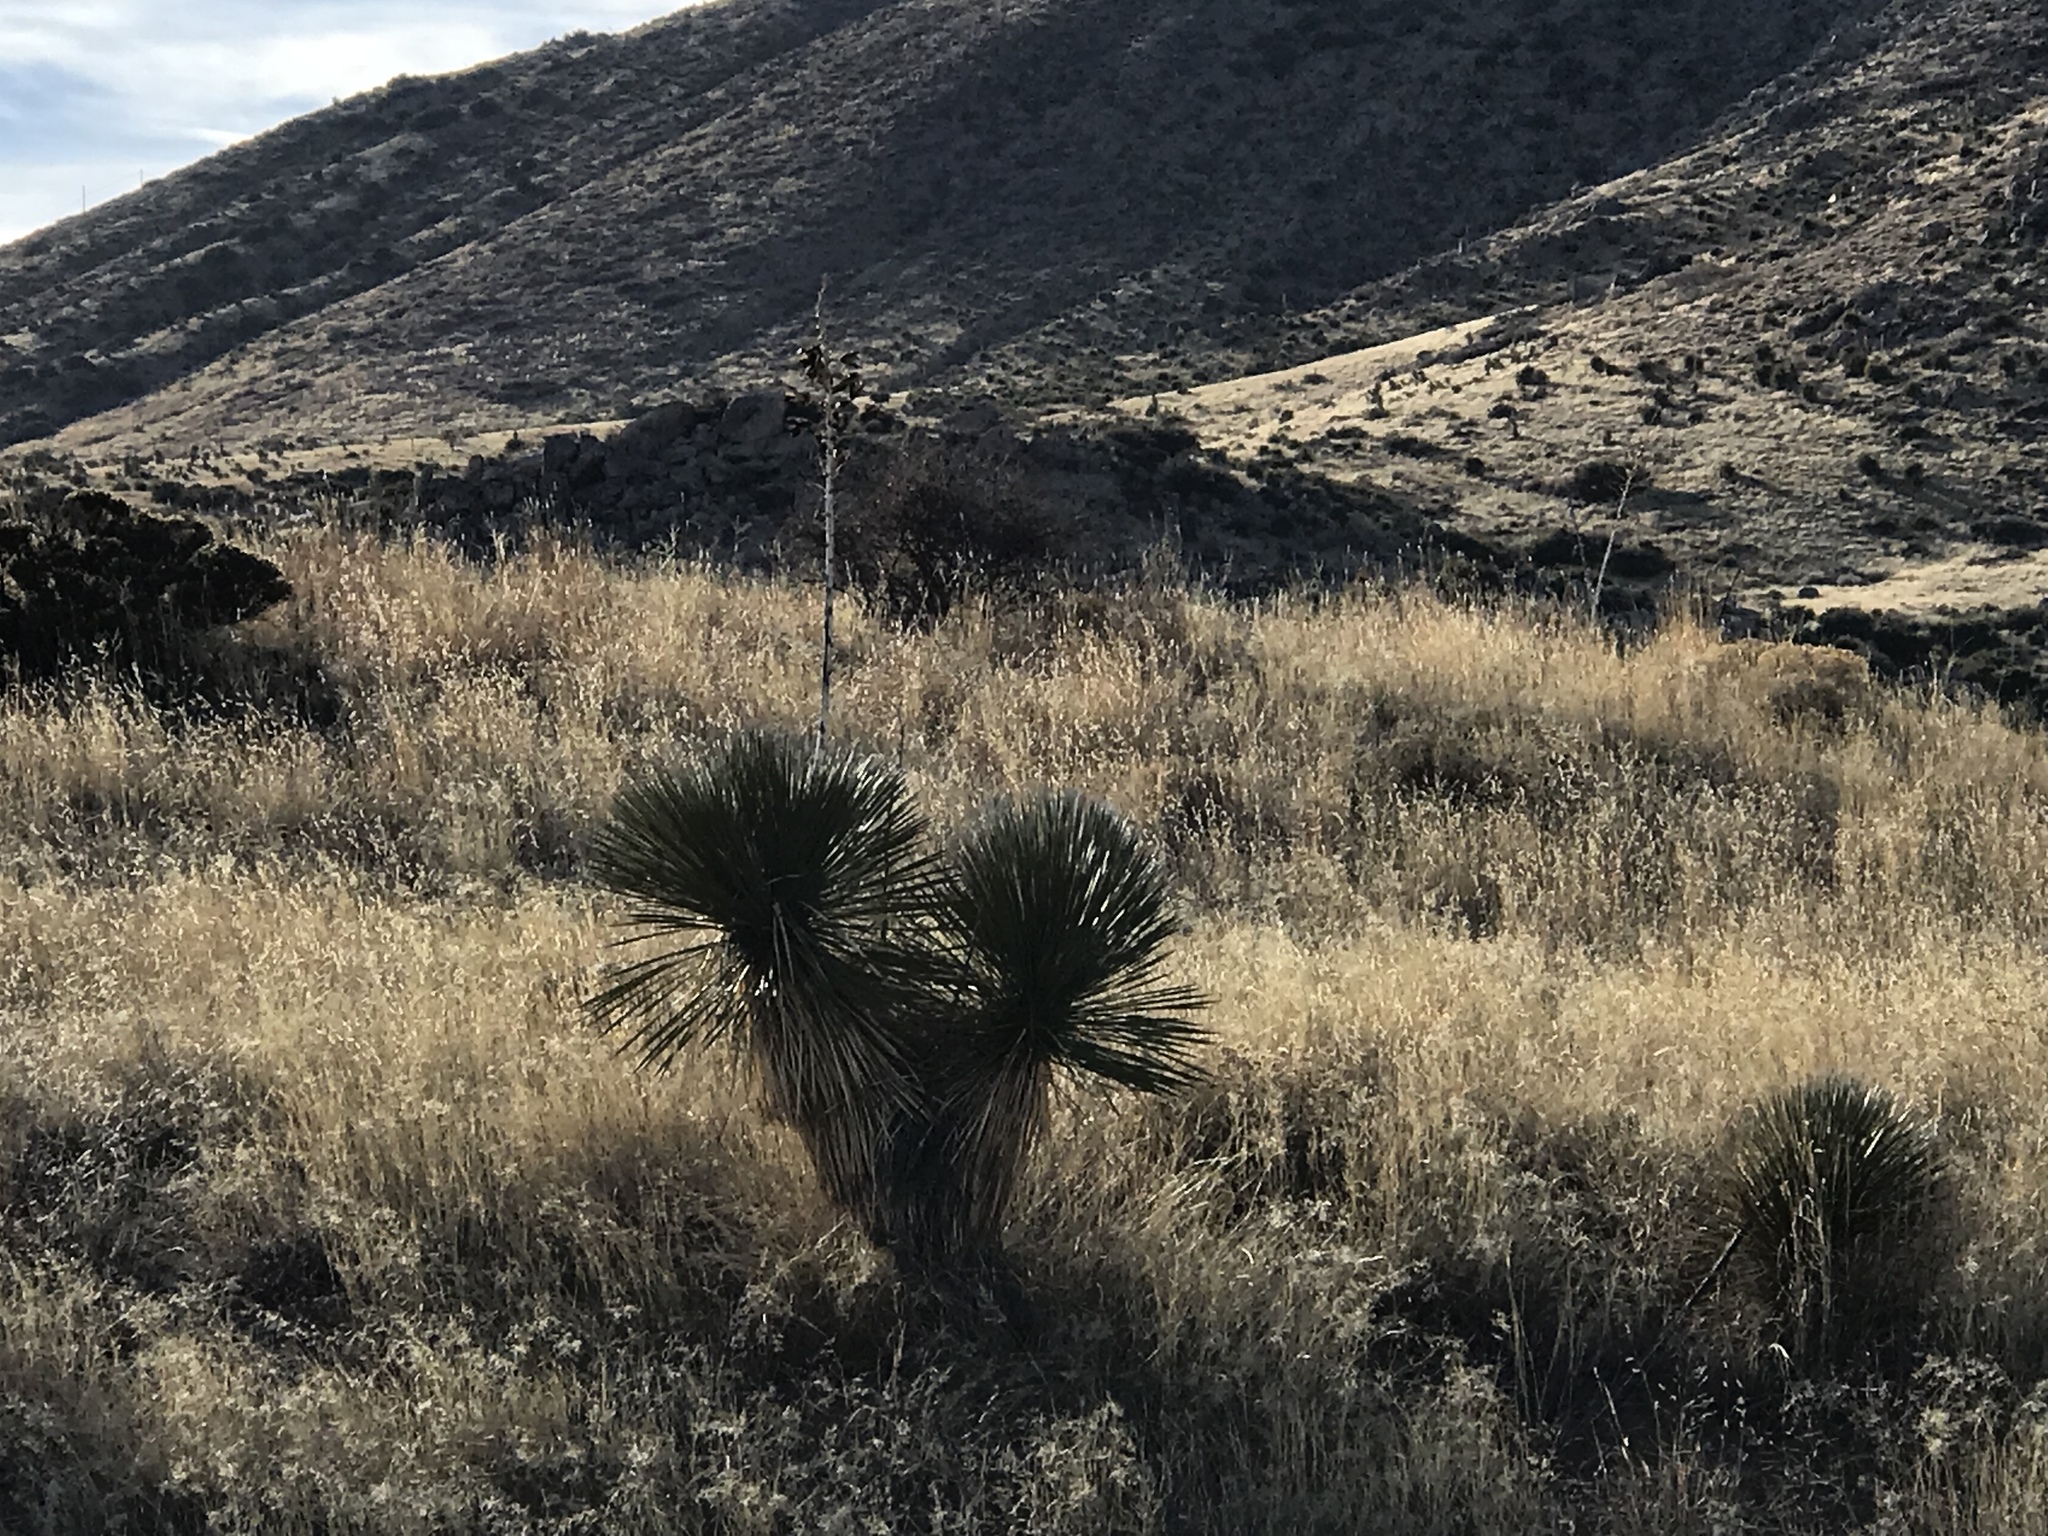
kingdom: Plantae
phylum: Tracheophyta
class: Liliopsida
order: Asparagales
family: Asparagaceae
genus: Yucca
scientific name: Yucca elata
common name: Palmella
